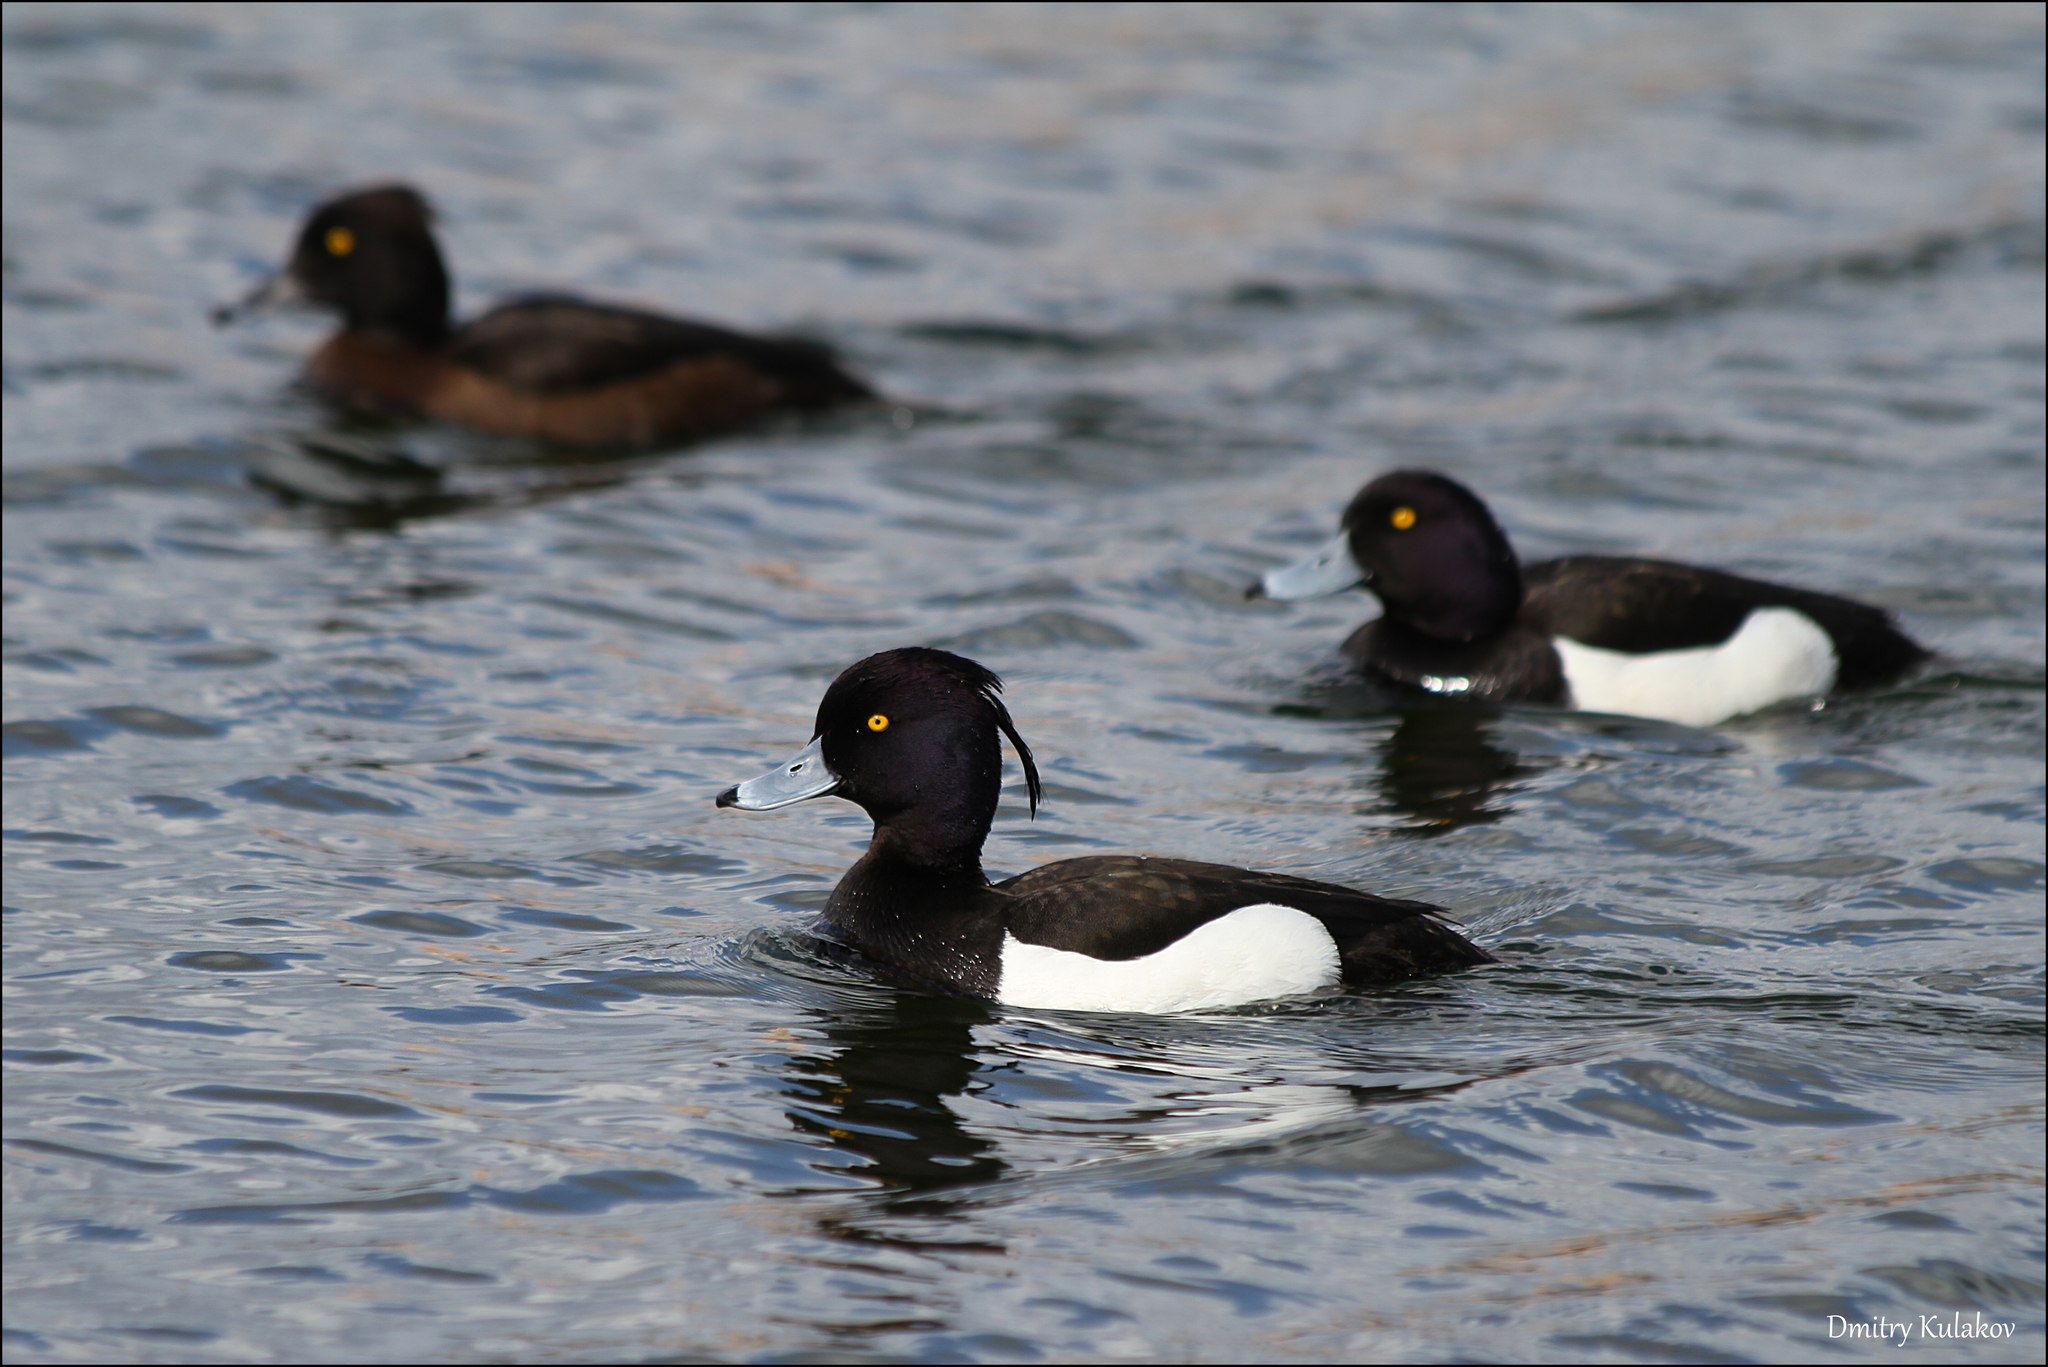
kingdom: Animalia
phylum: Chordata
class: Aves
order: Anseriformes
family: Anatidae
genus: Aythya
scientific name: Aythya fuligula
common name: Tufted duck
